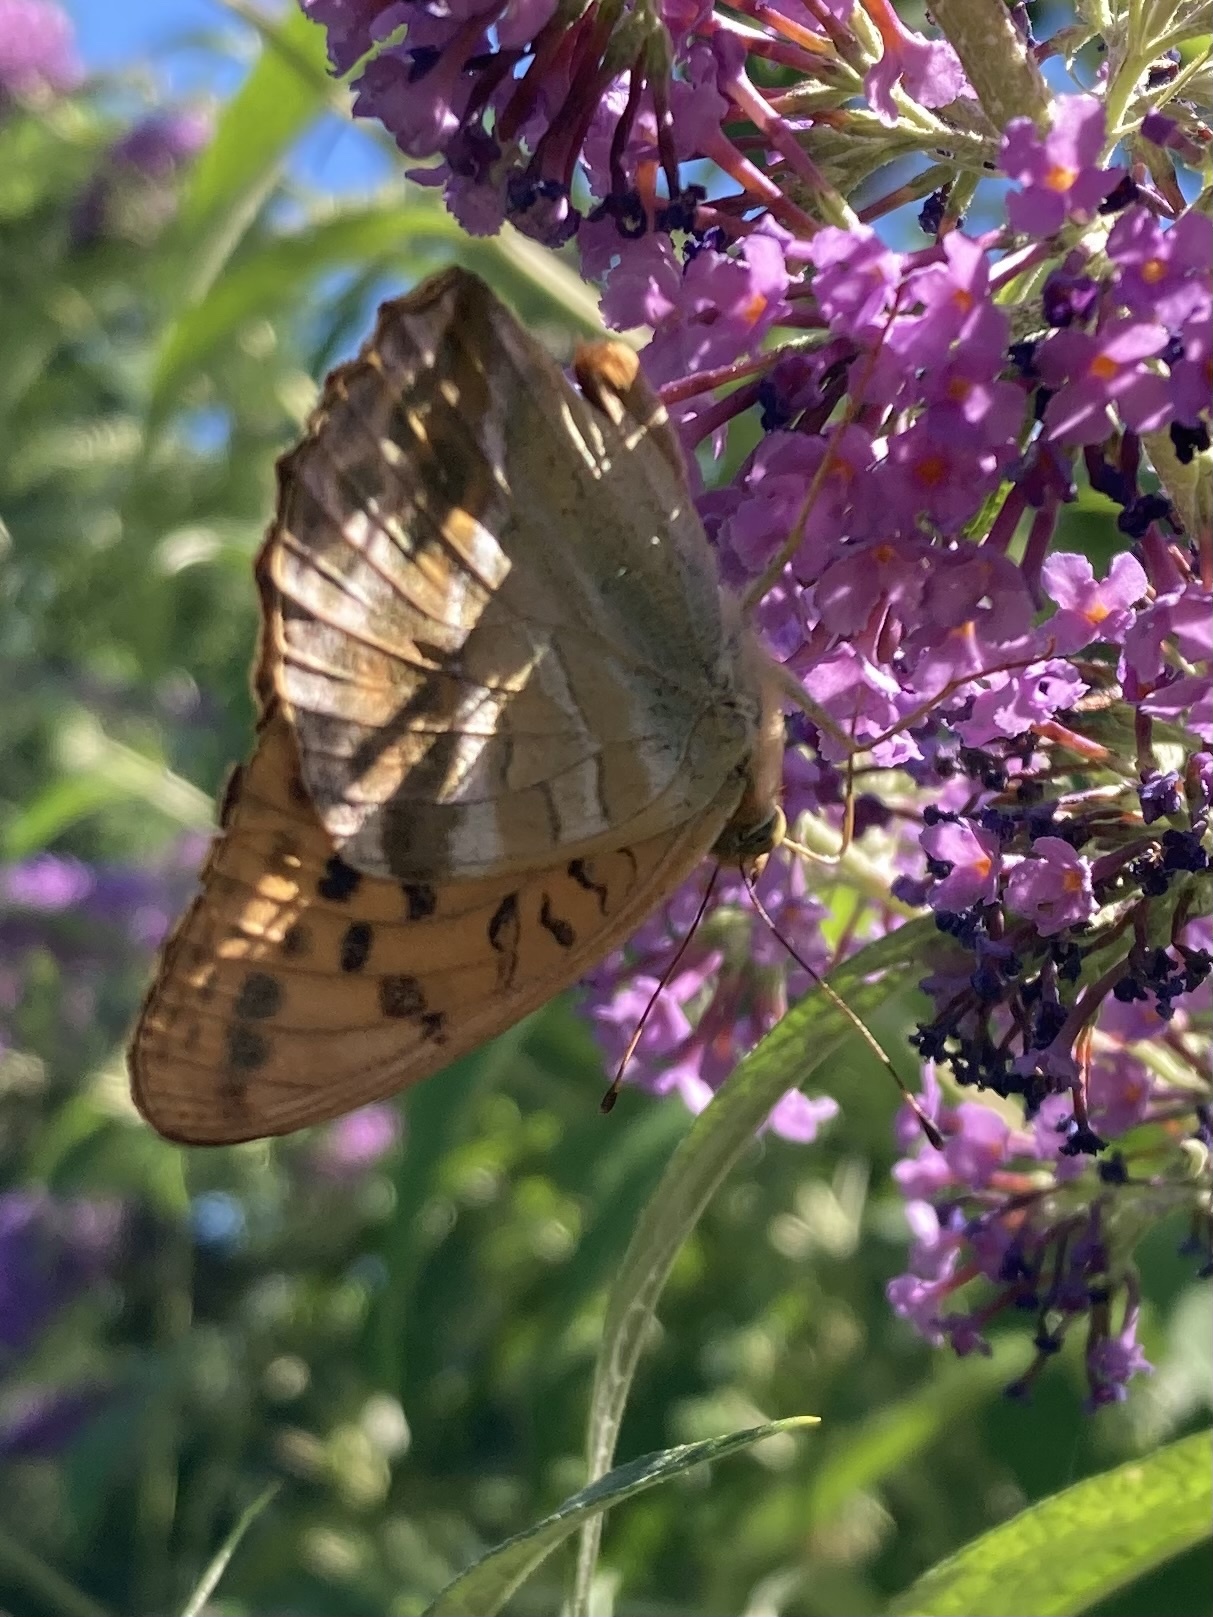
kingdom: Animalia
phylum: Arthropoda
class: Insecta
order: Lepidoptera
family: Nymphalidae
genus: Argynnis
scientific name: Argynnis paphia
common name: Silver-washed fritillary
